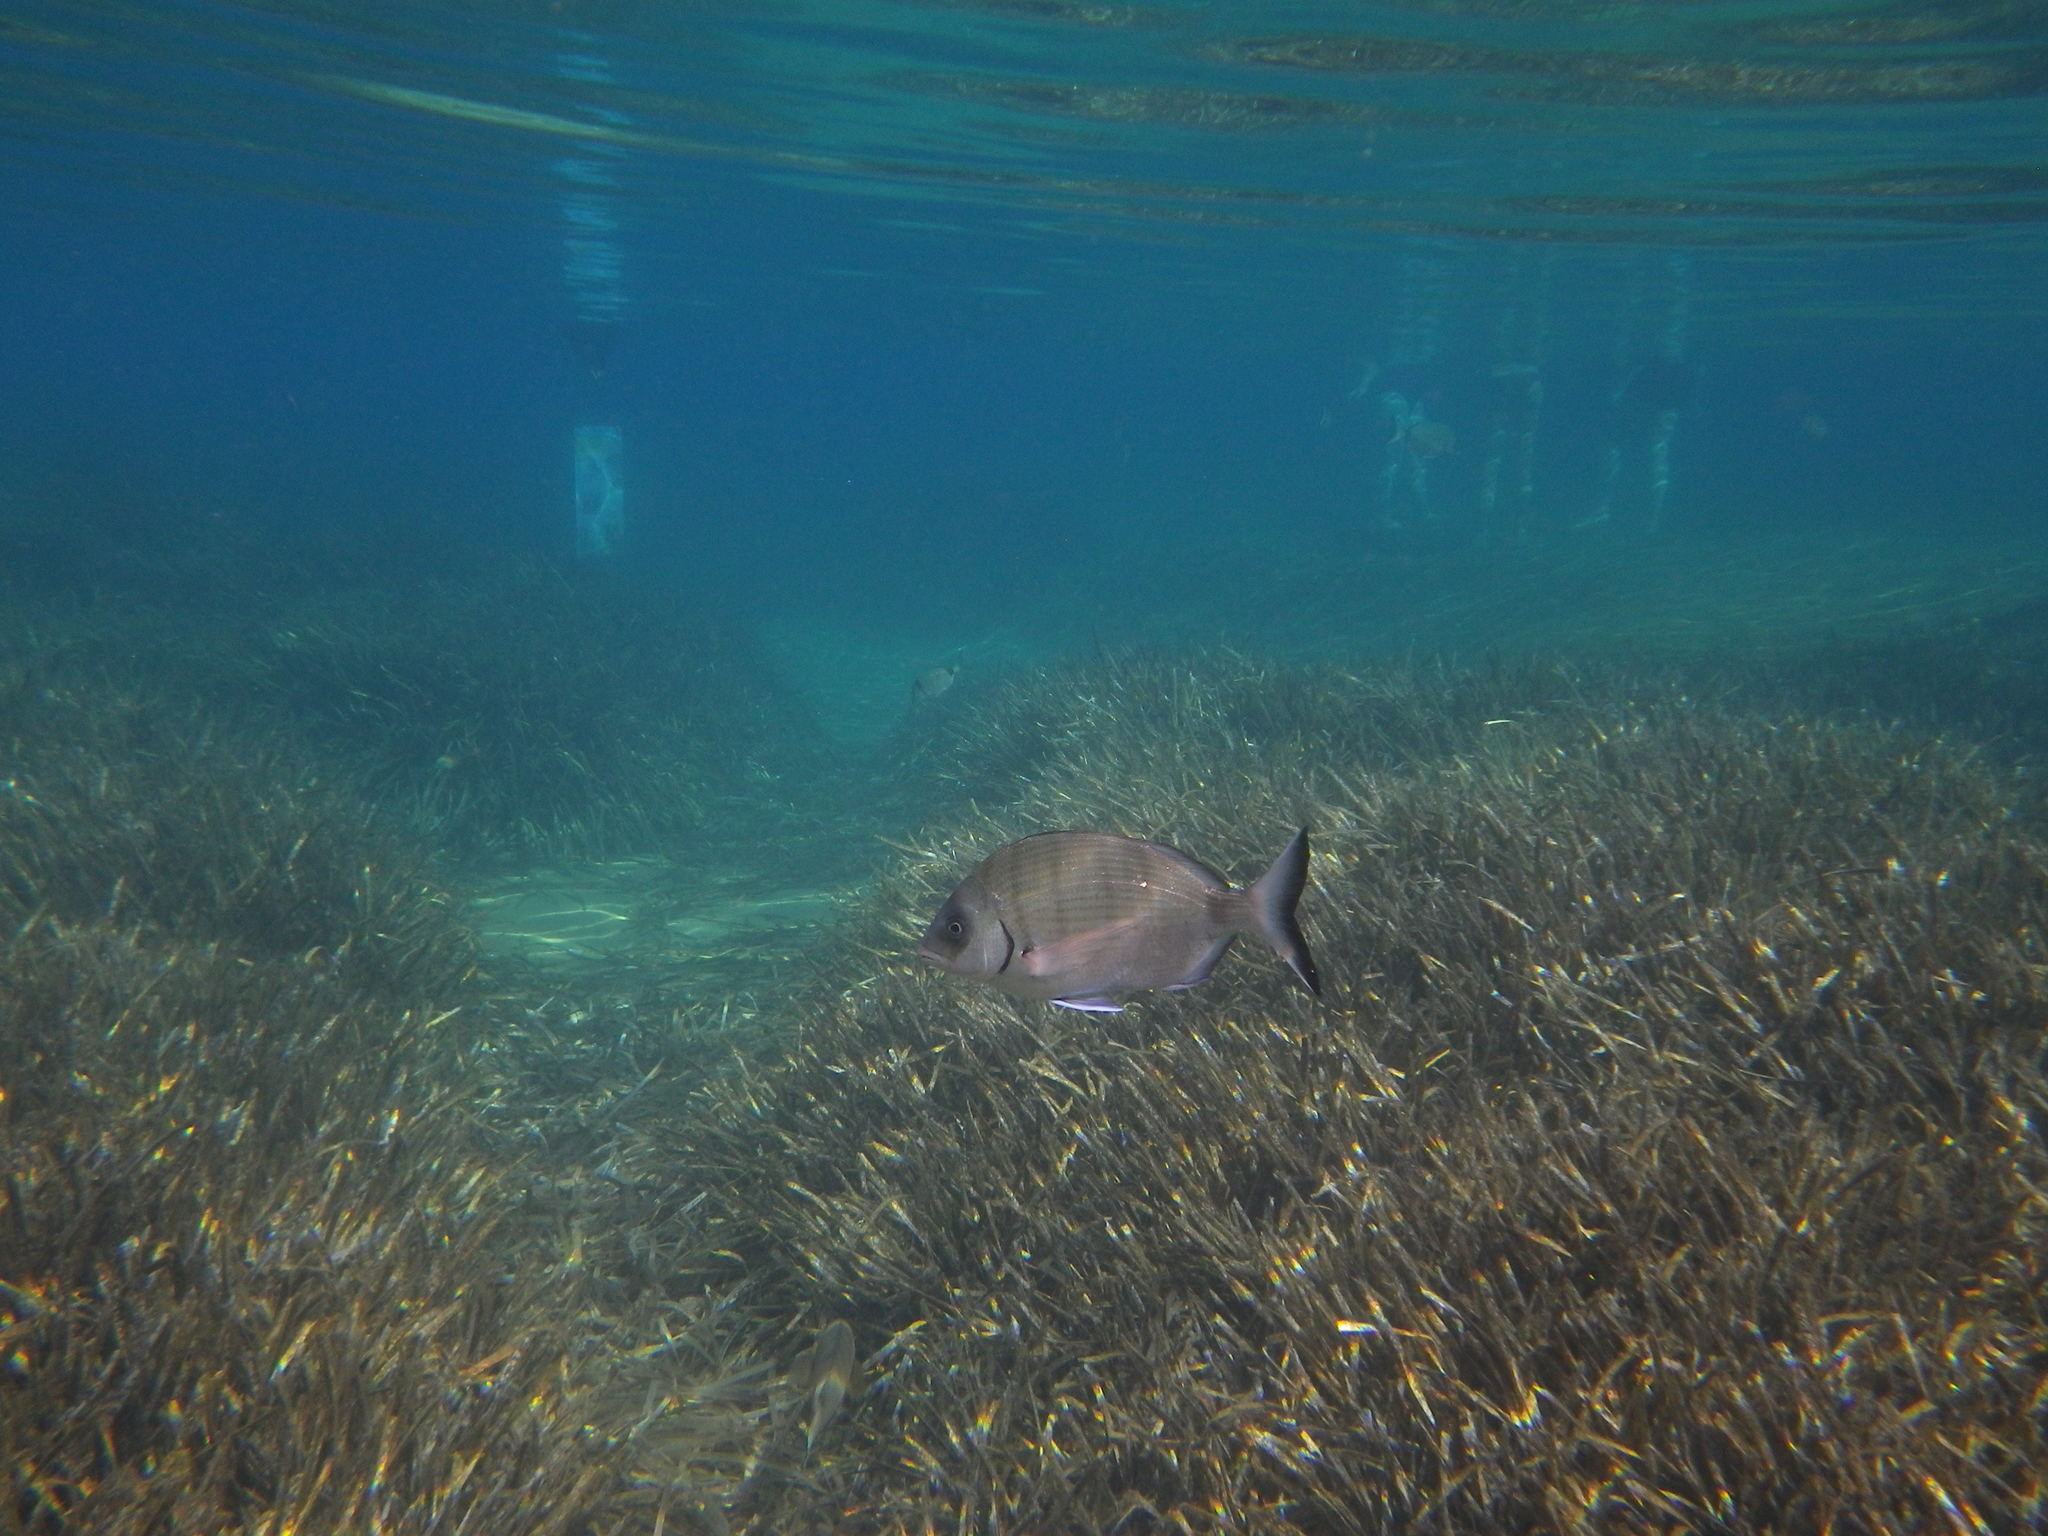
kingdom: Animalia
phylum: Chordata
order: Perciformes
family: Sparidae
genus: Diplodus
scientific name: Diplodus sargus
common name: White seabream
